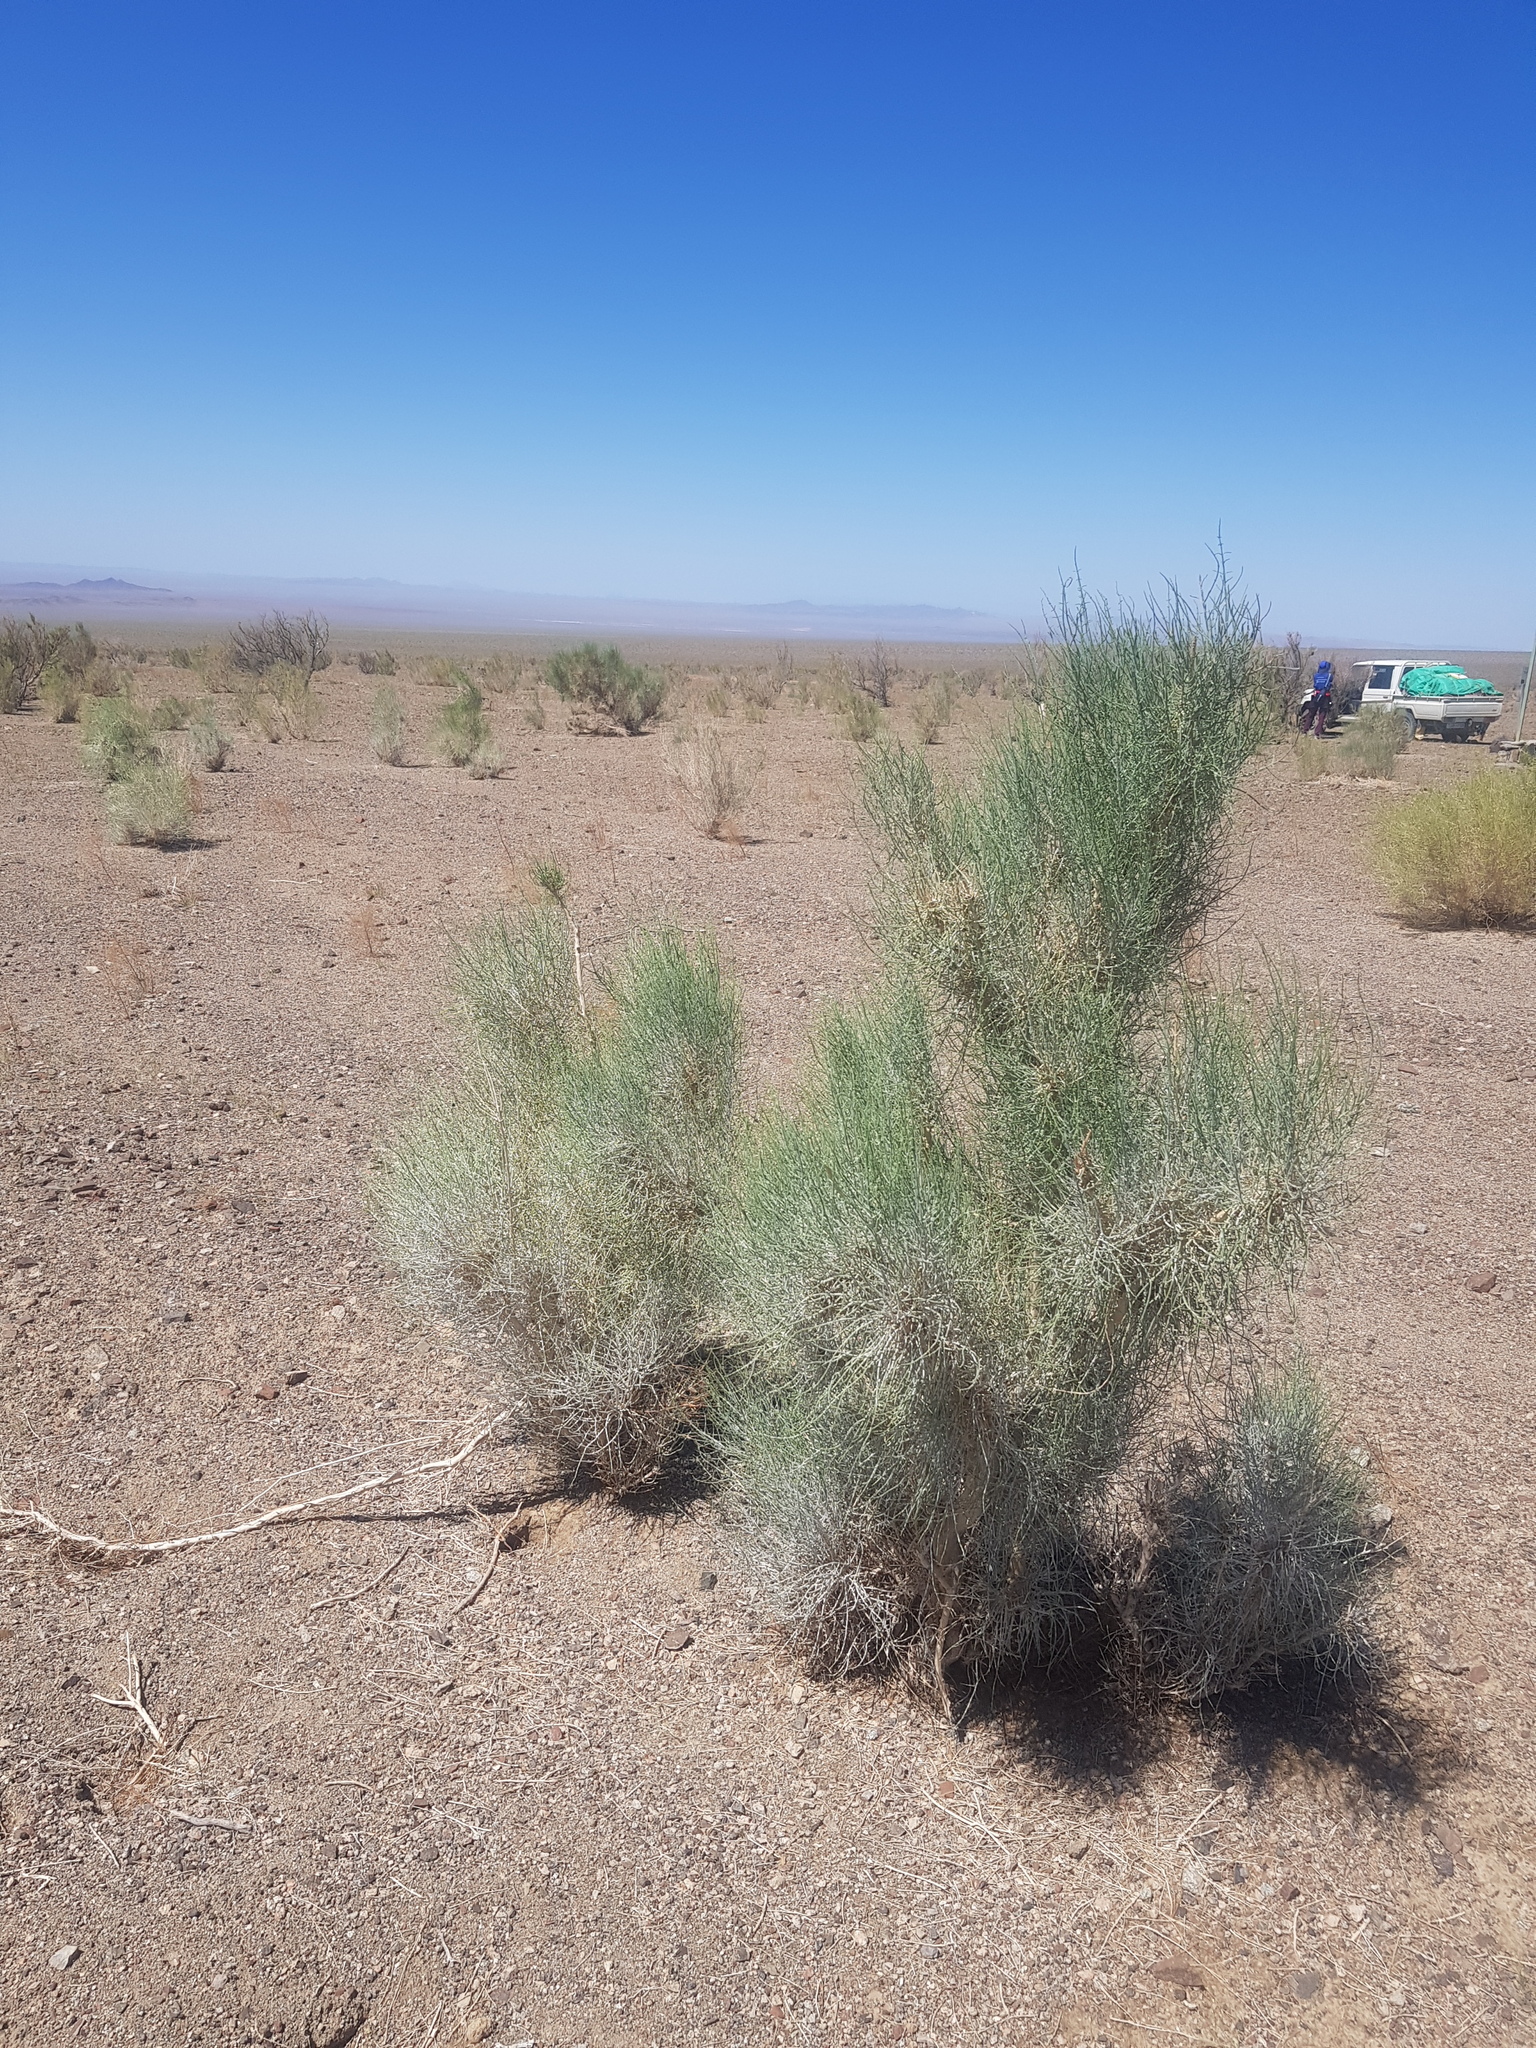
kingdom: Plantae
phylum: Tracheophyta
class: Magnoliopsida
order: Caryophyllales
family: Amaranthaceae
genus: Haloxylon
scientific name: Haloxylon ammodendron
